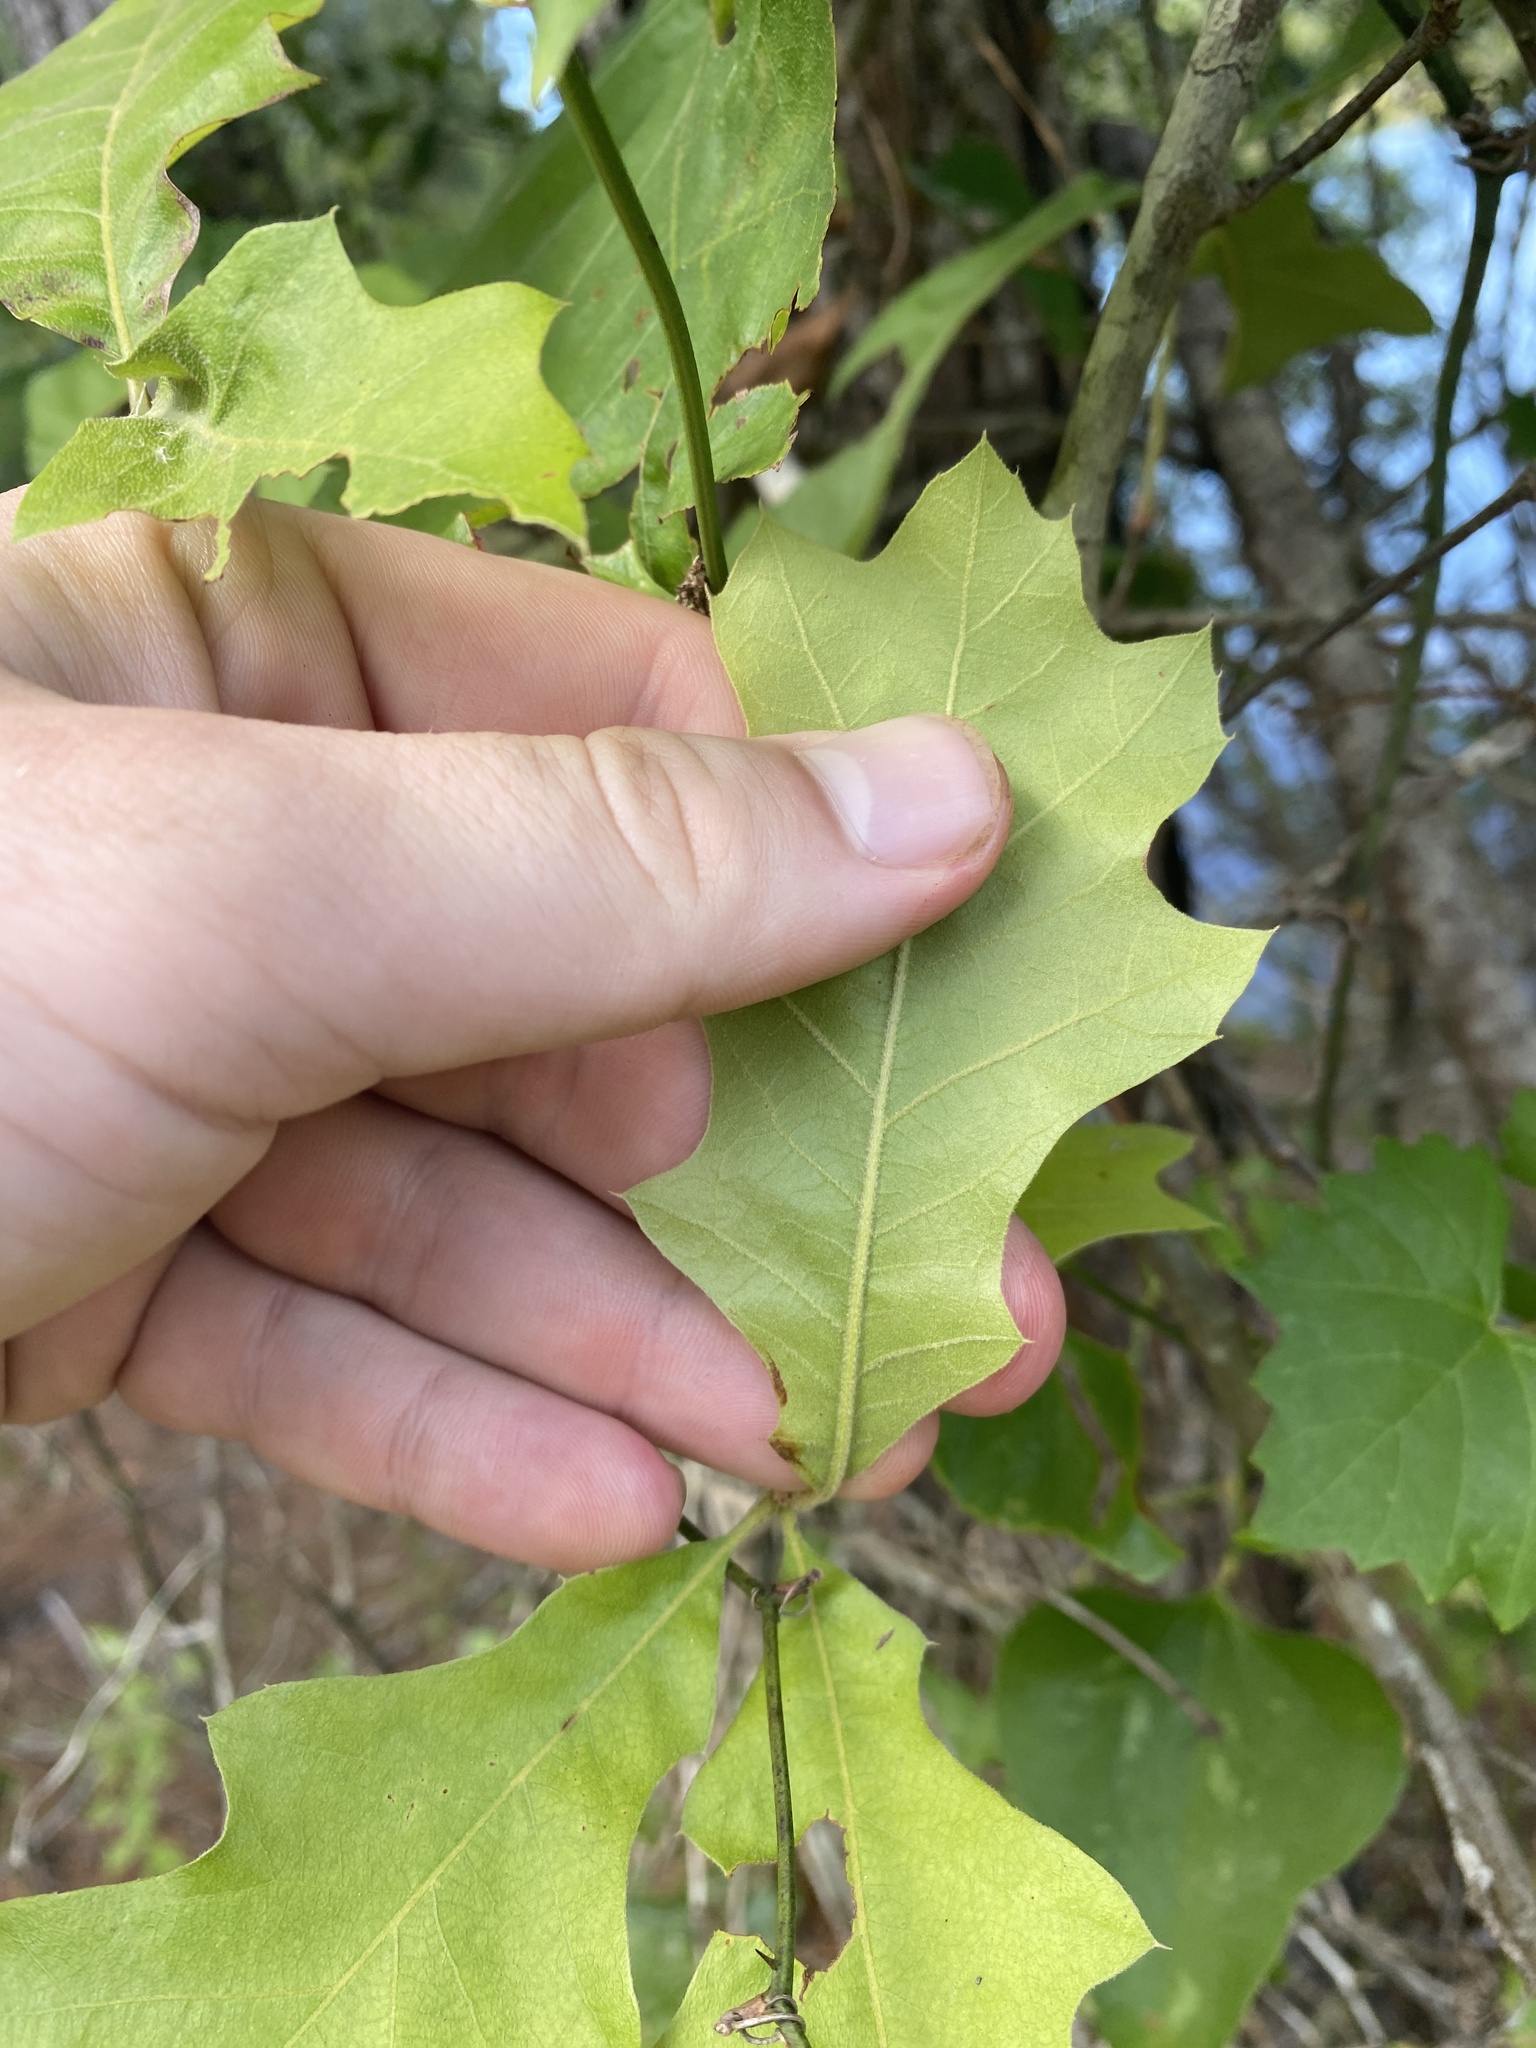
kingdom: Plantae
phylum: Tracheophyta
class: Magnoliopsida
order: Fagales
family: Fagaceae
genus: Quercus
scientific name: Quercus velutina
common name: Black oak
